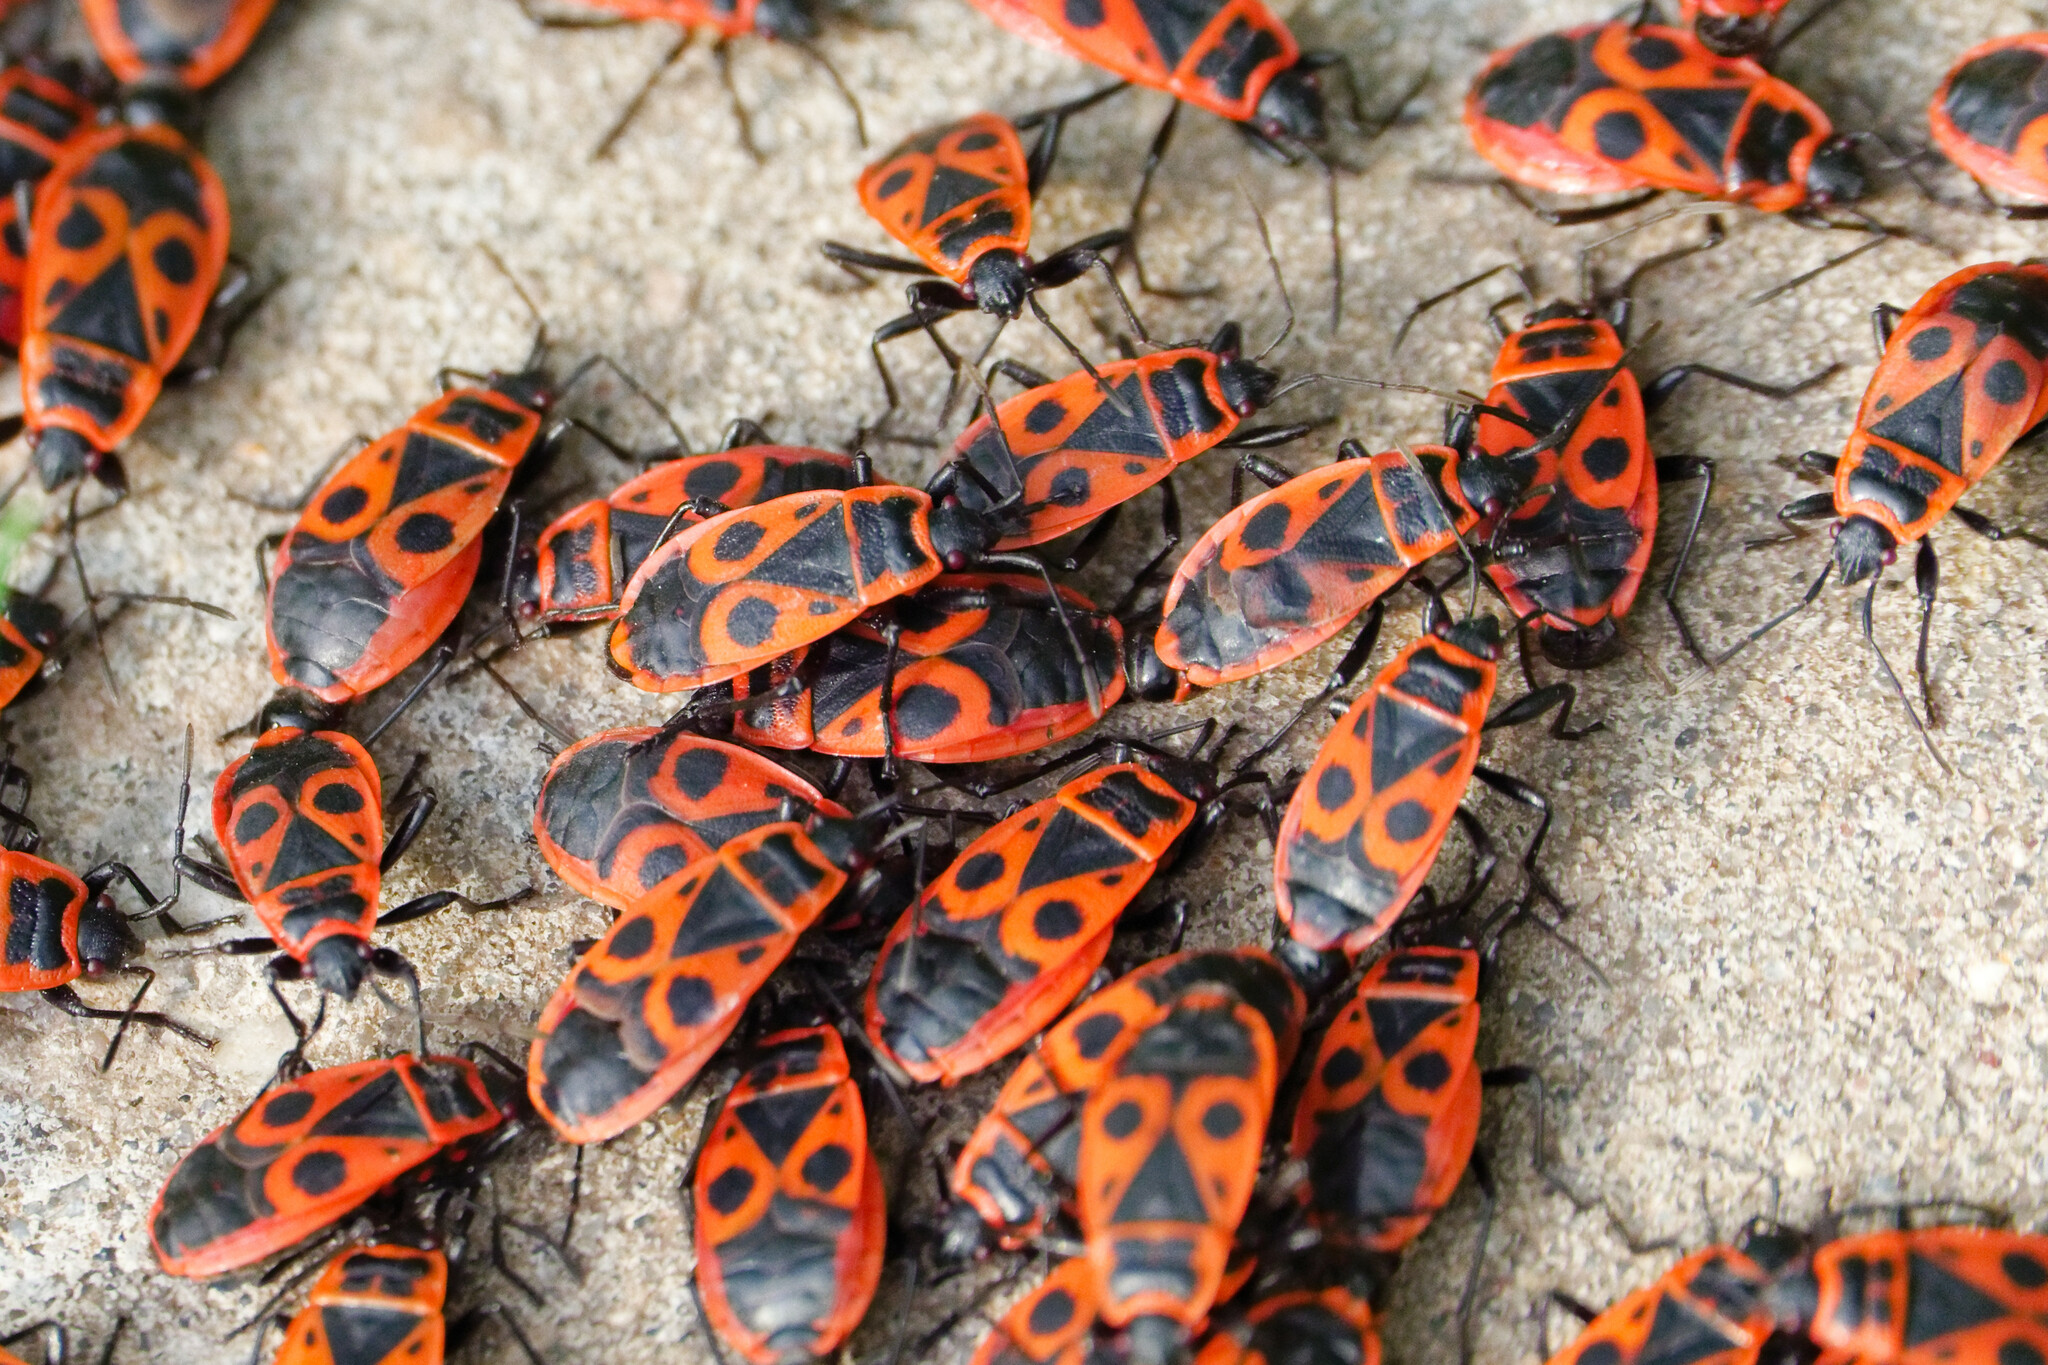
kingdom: Animalia
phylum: Arthropoda
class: Insecta
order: Hemiptera
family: Pyrrhocoridae
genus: Pyrrhocoris
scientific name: Pyrrhocoris apterus
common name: Firebug
